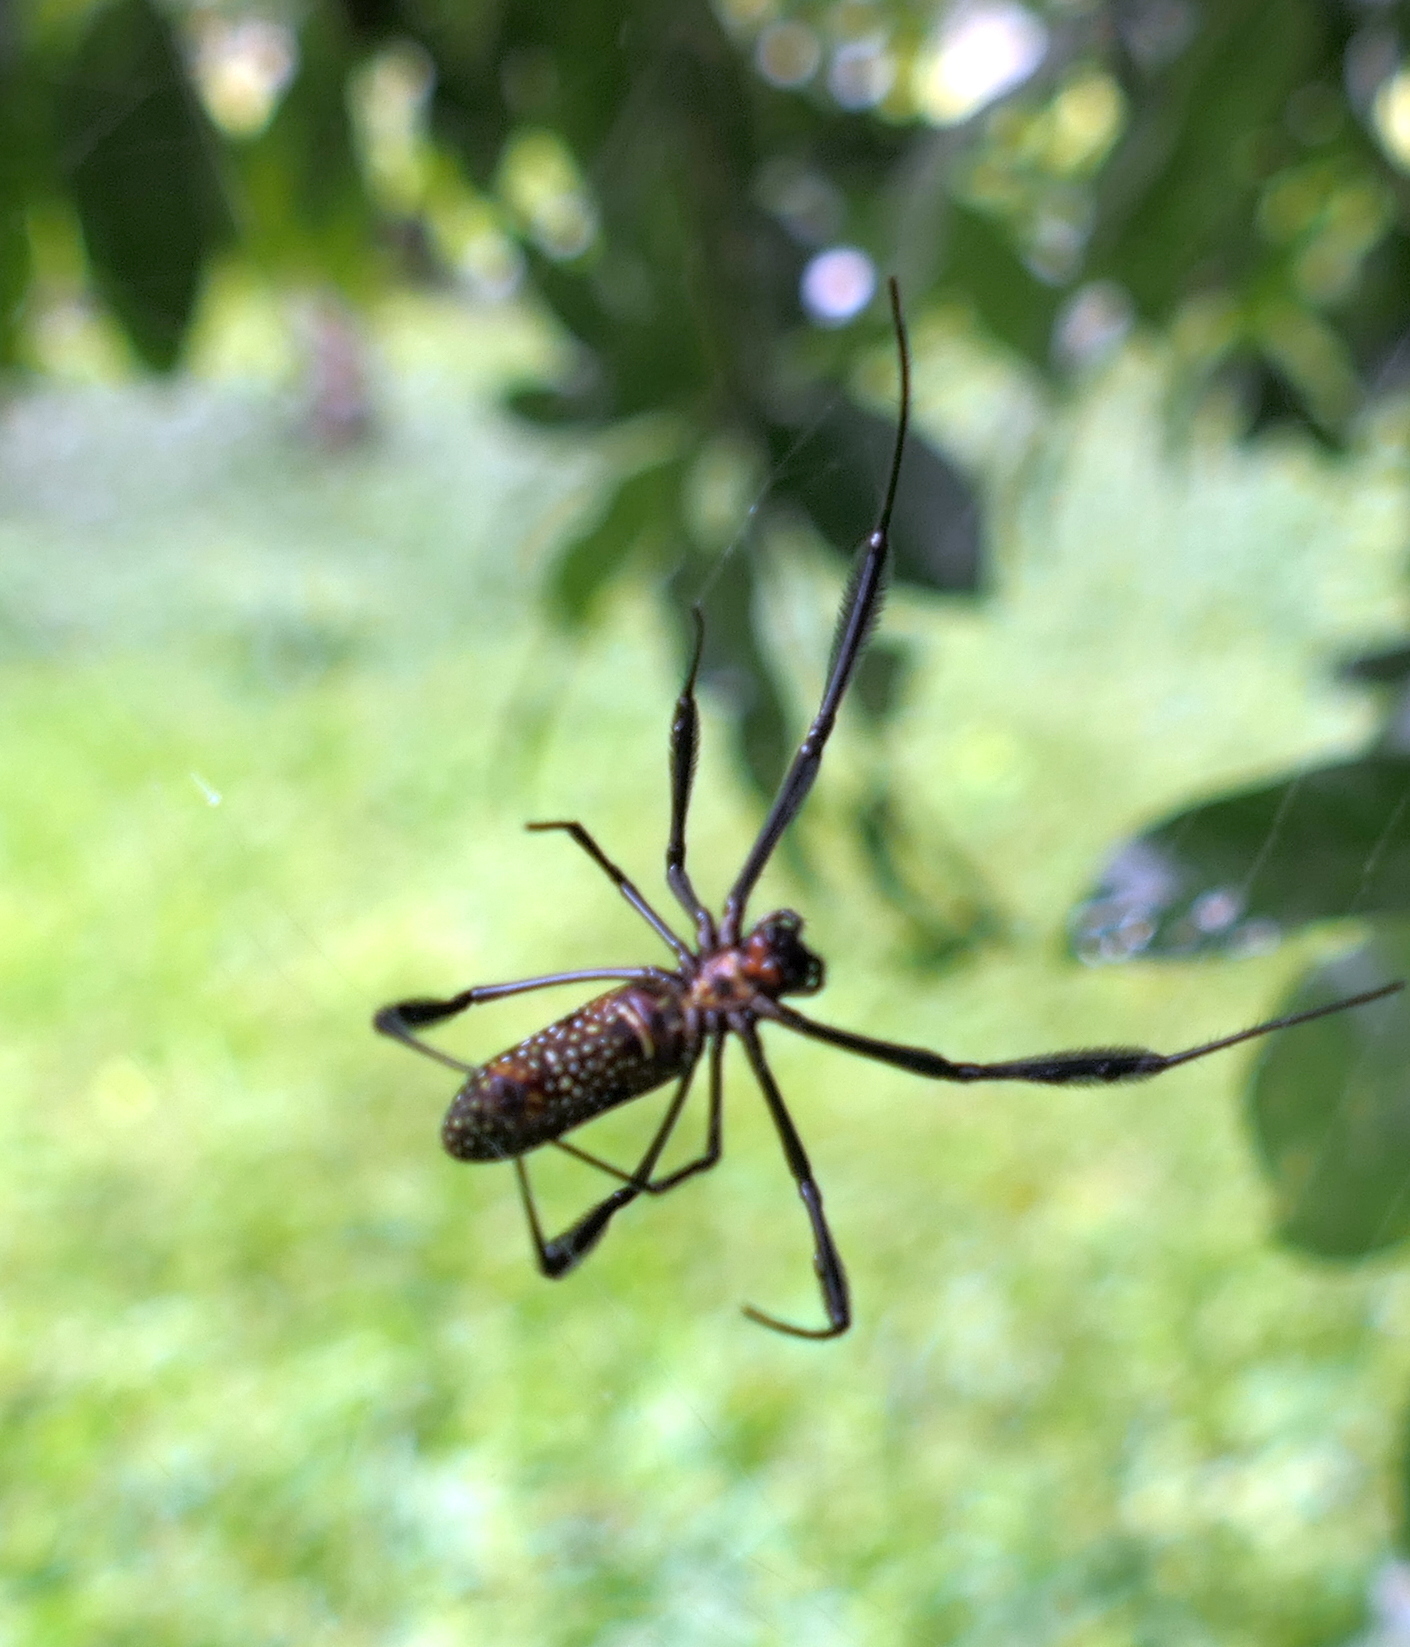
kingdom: Animalia
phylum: Arthropoda
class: Arachnida
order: Araneae
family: Araneidae
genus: Trichonephila
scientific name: Trichonephila clavipes
